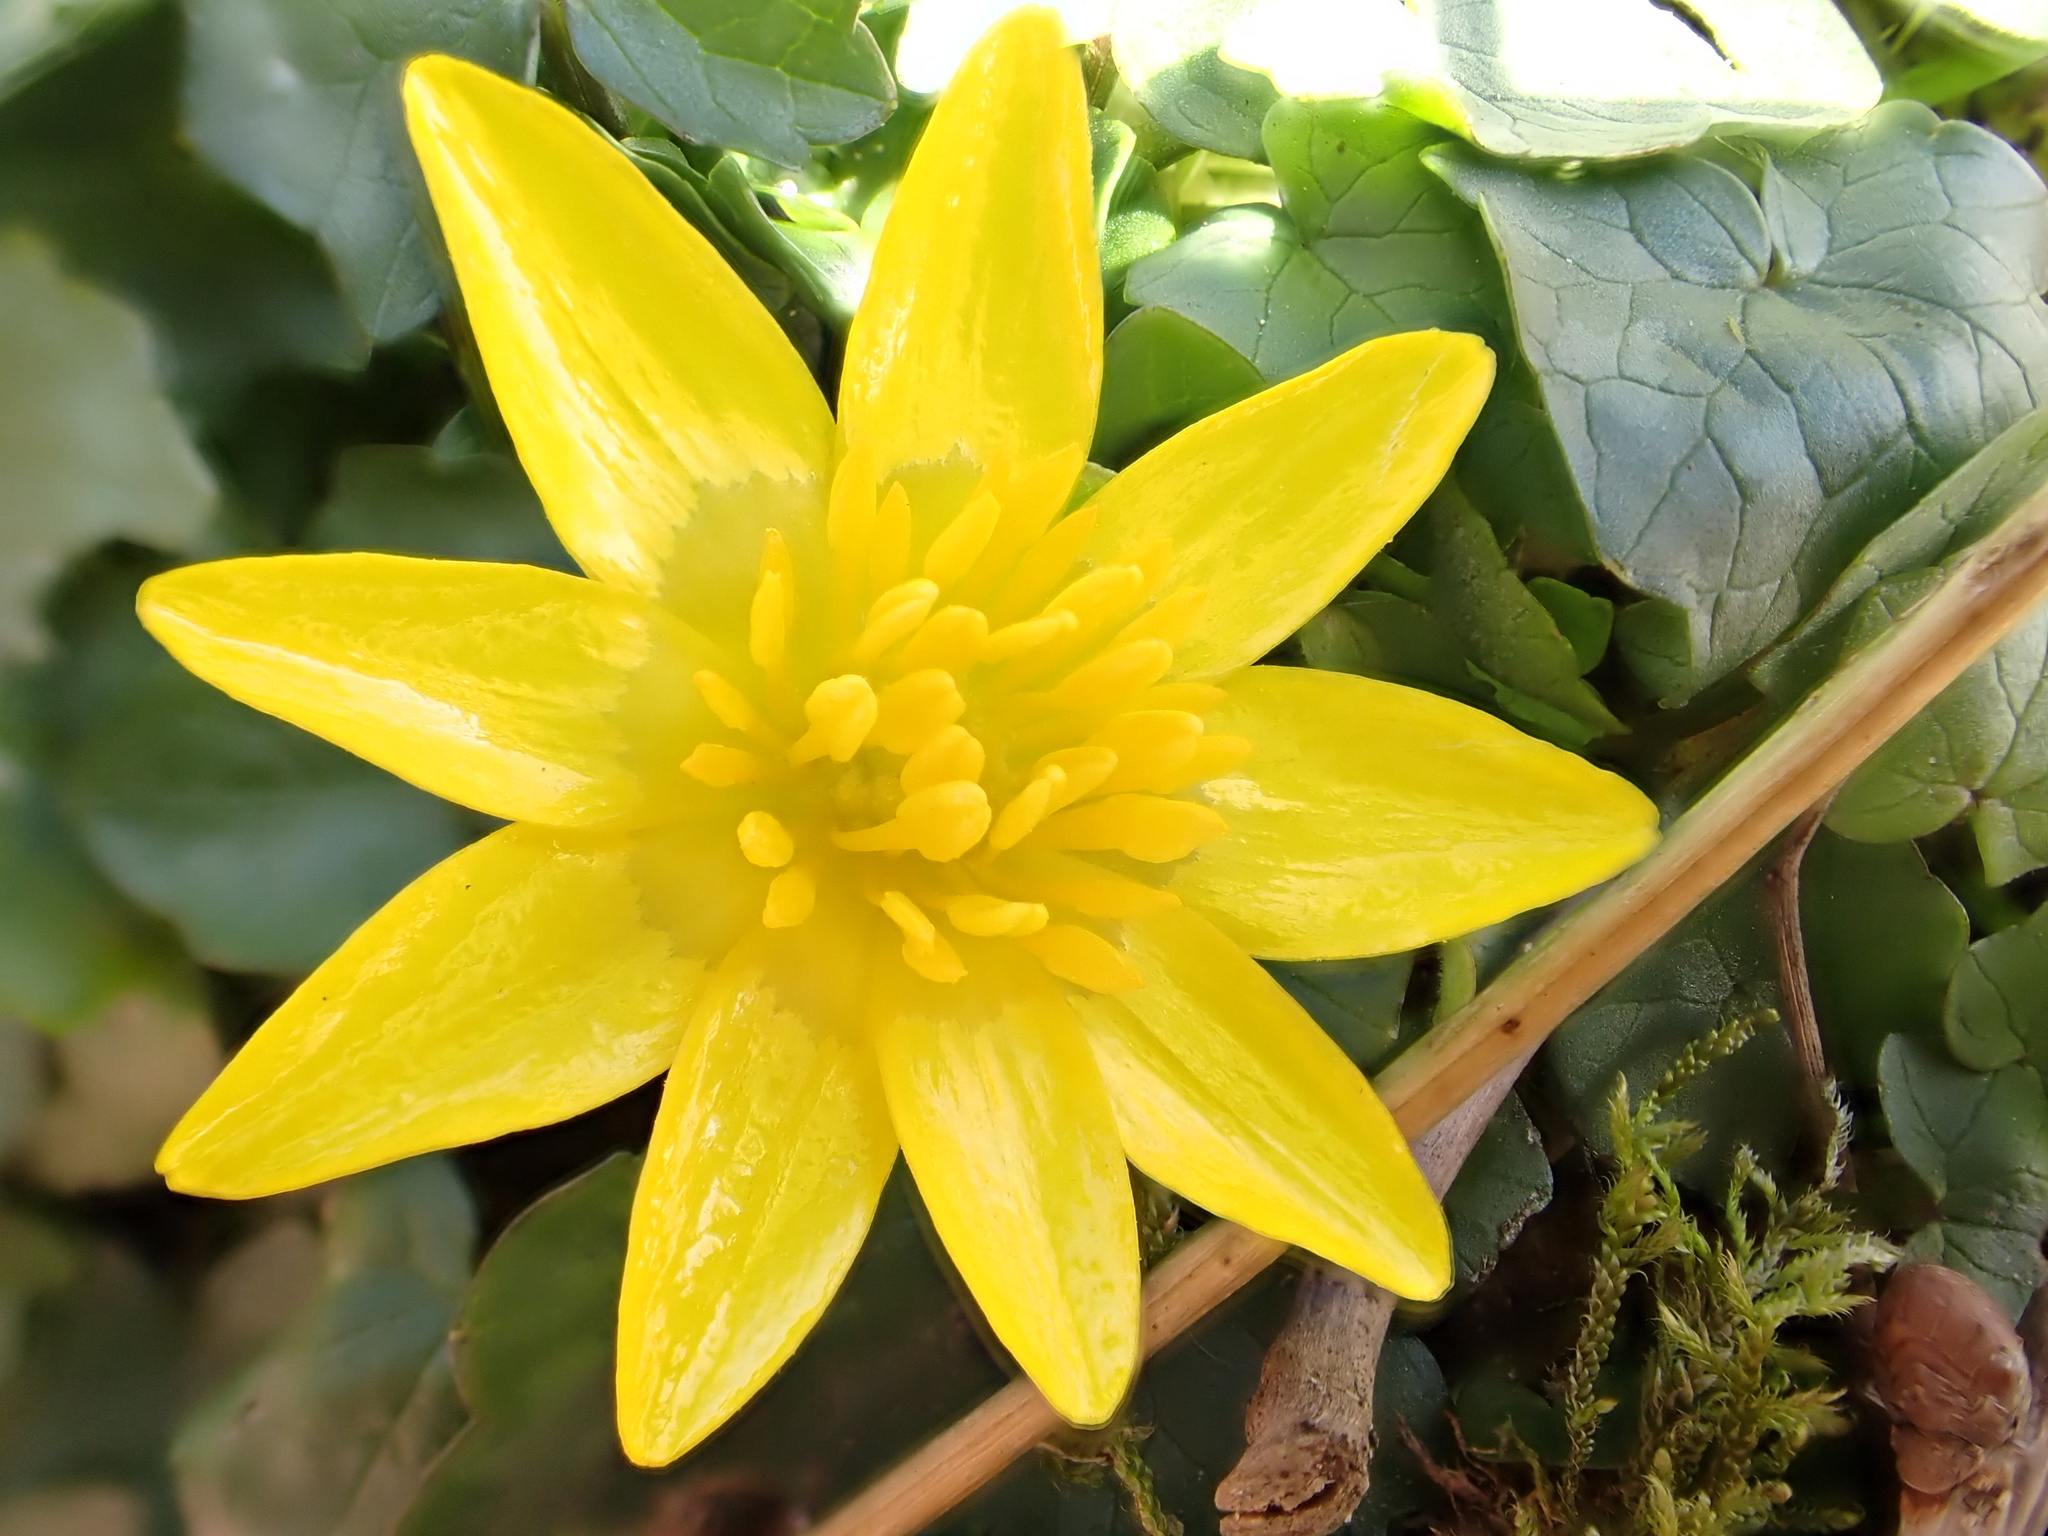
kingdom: Plantae
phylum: Tracheophyta
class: Magnoliopsida
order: Ranunculales
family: Ranunculaceae
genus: Ficaria
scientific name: Ficaria verna
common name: Lesser celandine
